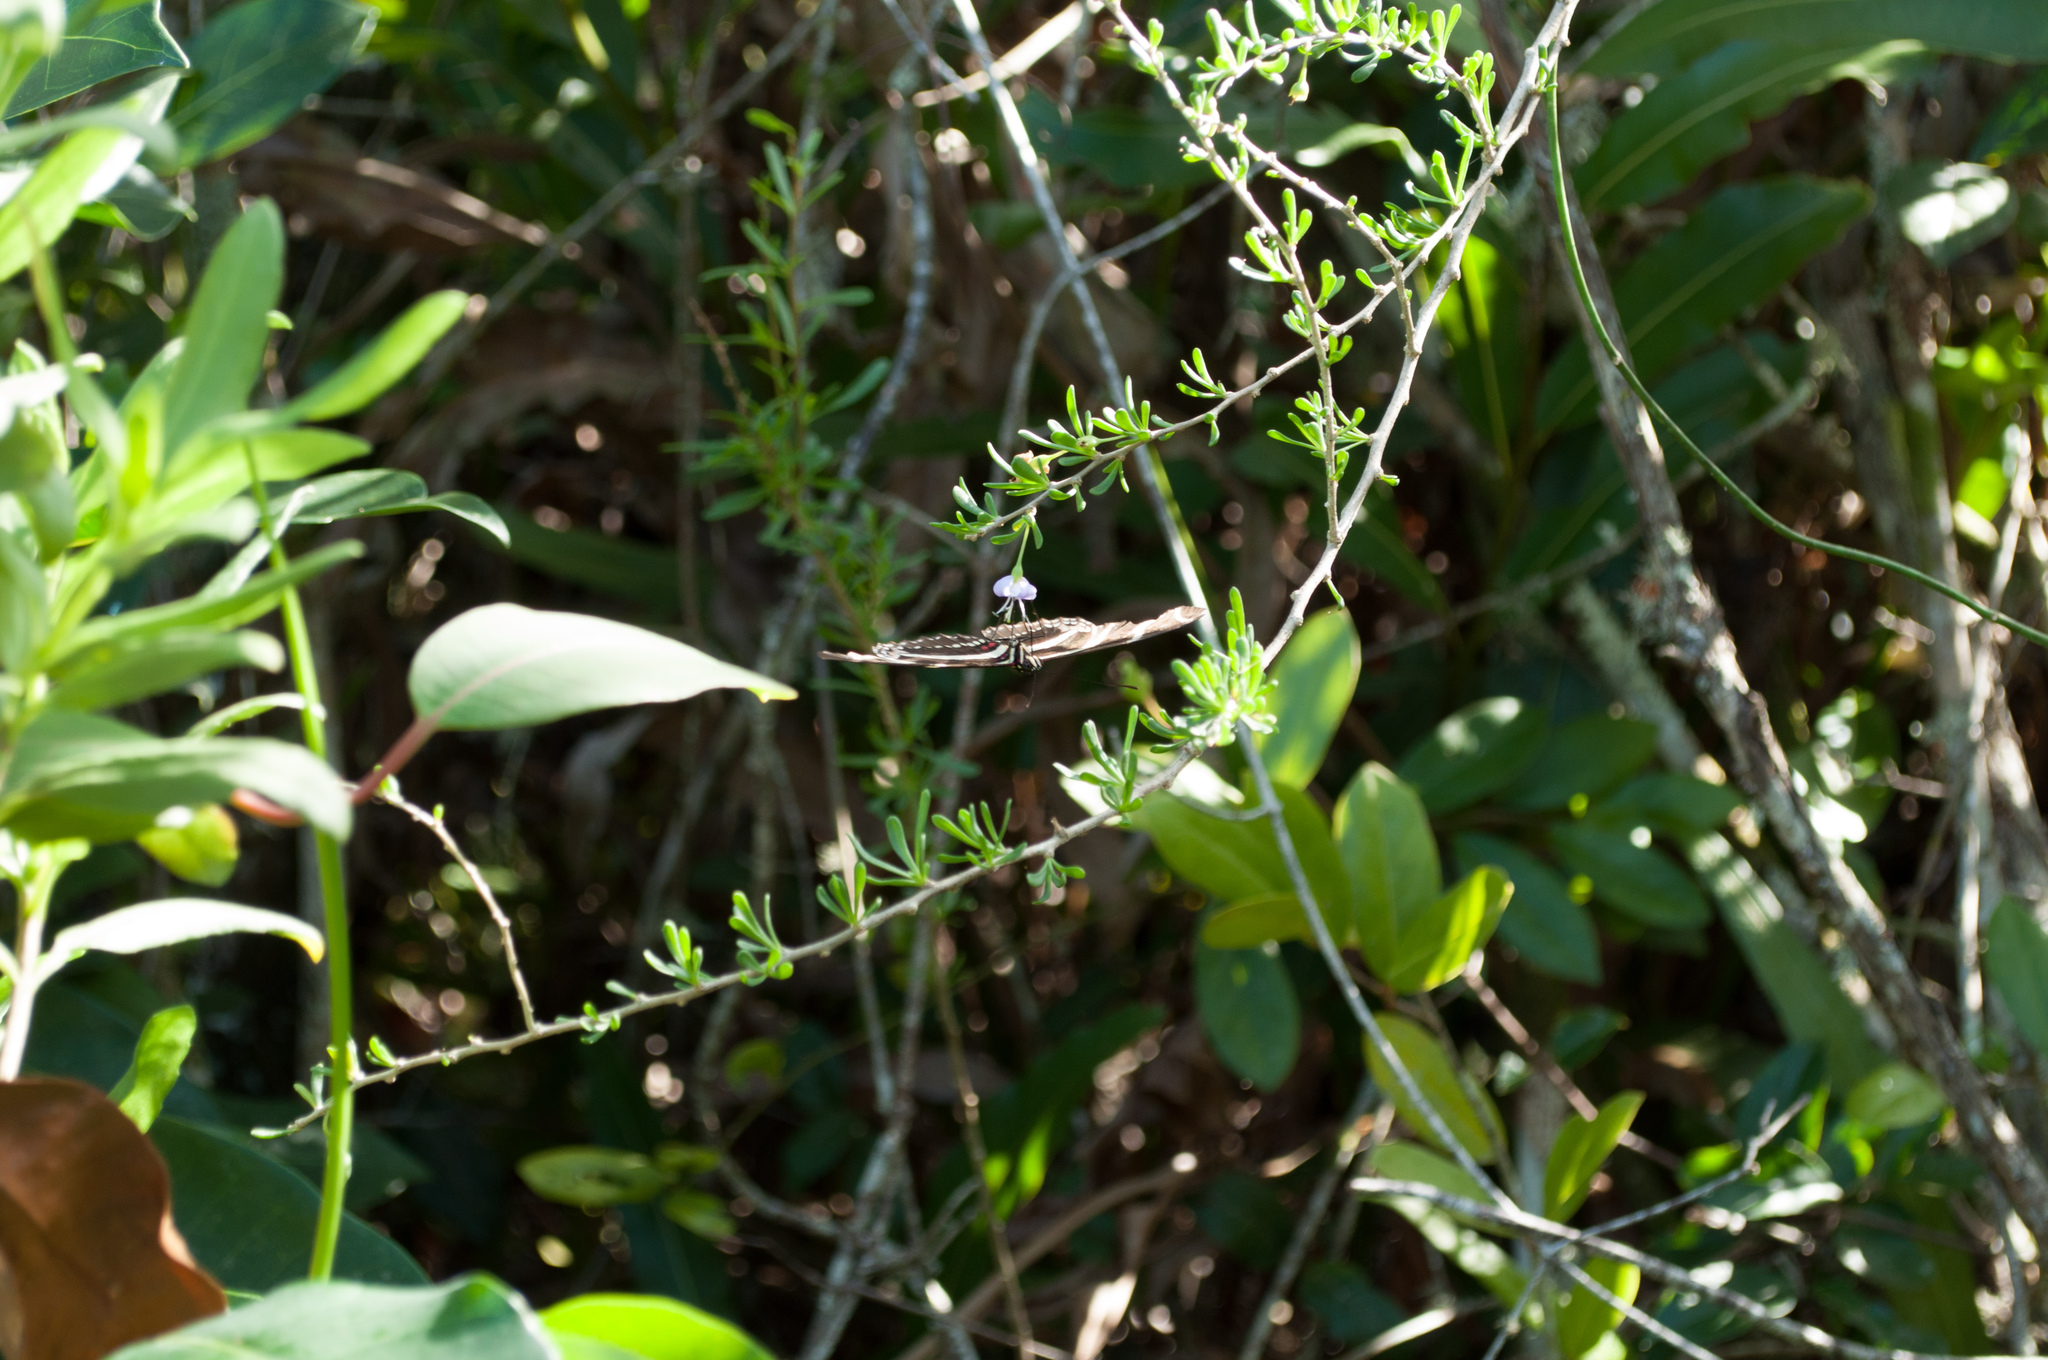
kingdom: Animalia
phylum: Arthropoda
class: Insecta
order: Lepidoptera
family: Nymphalidae
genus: Heliconius
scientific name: Heliconius charithonia
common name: Zebra long wing
